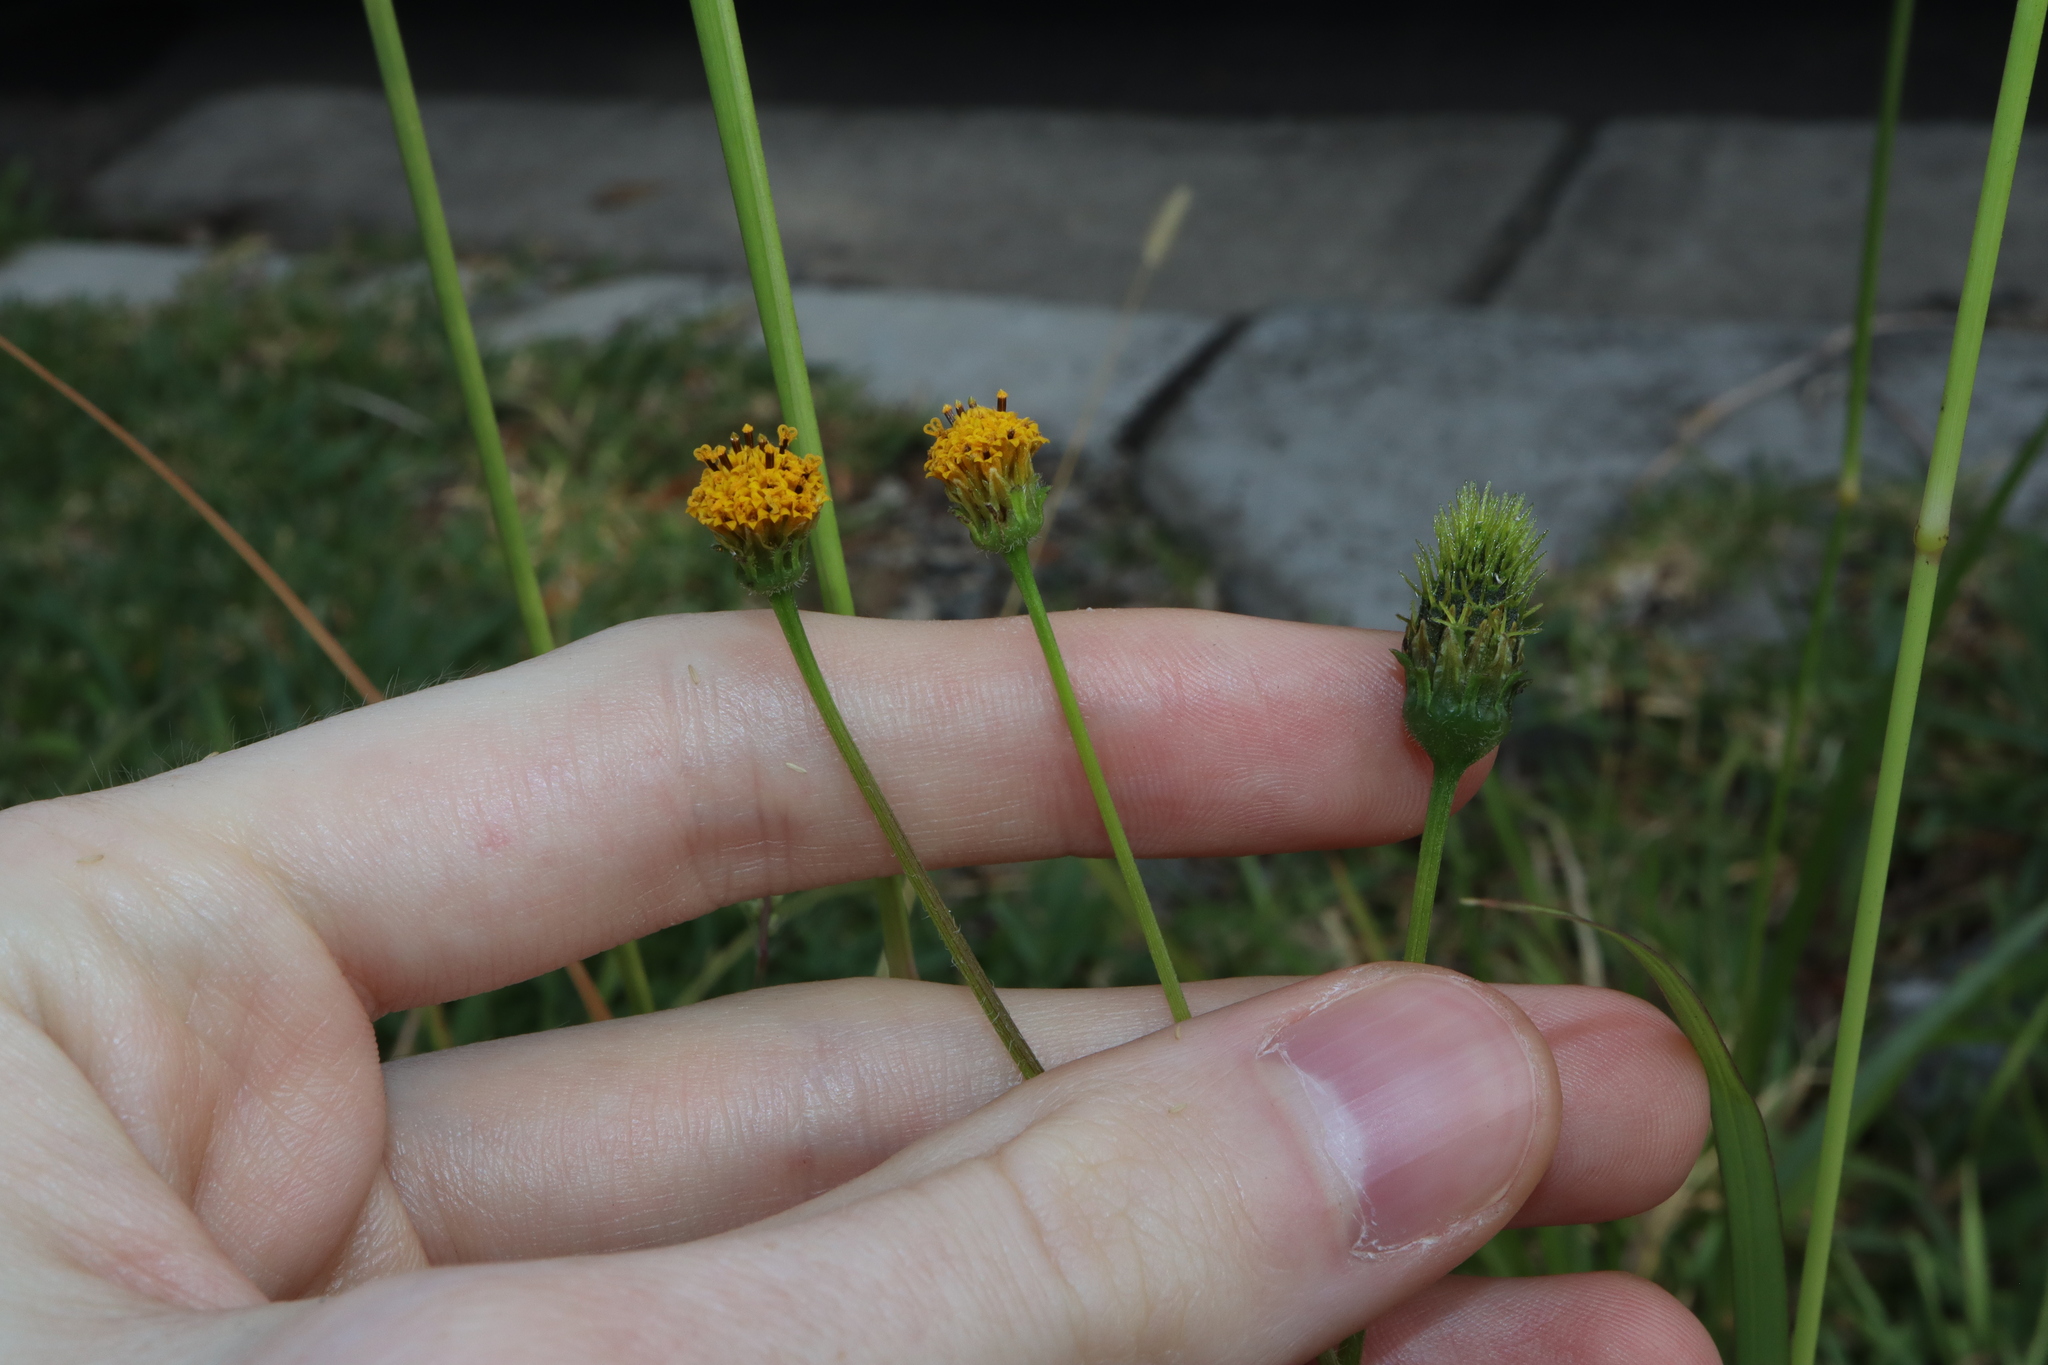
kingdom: Plantae
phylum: Tracheophyta
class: Magnoliopsida
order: Asterales
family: Asteraceae
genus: Bidens
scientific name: Bidens pilosa
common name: Black-jack
